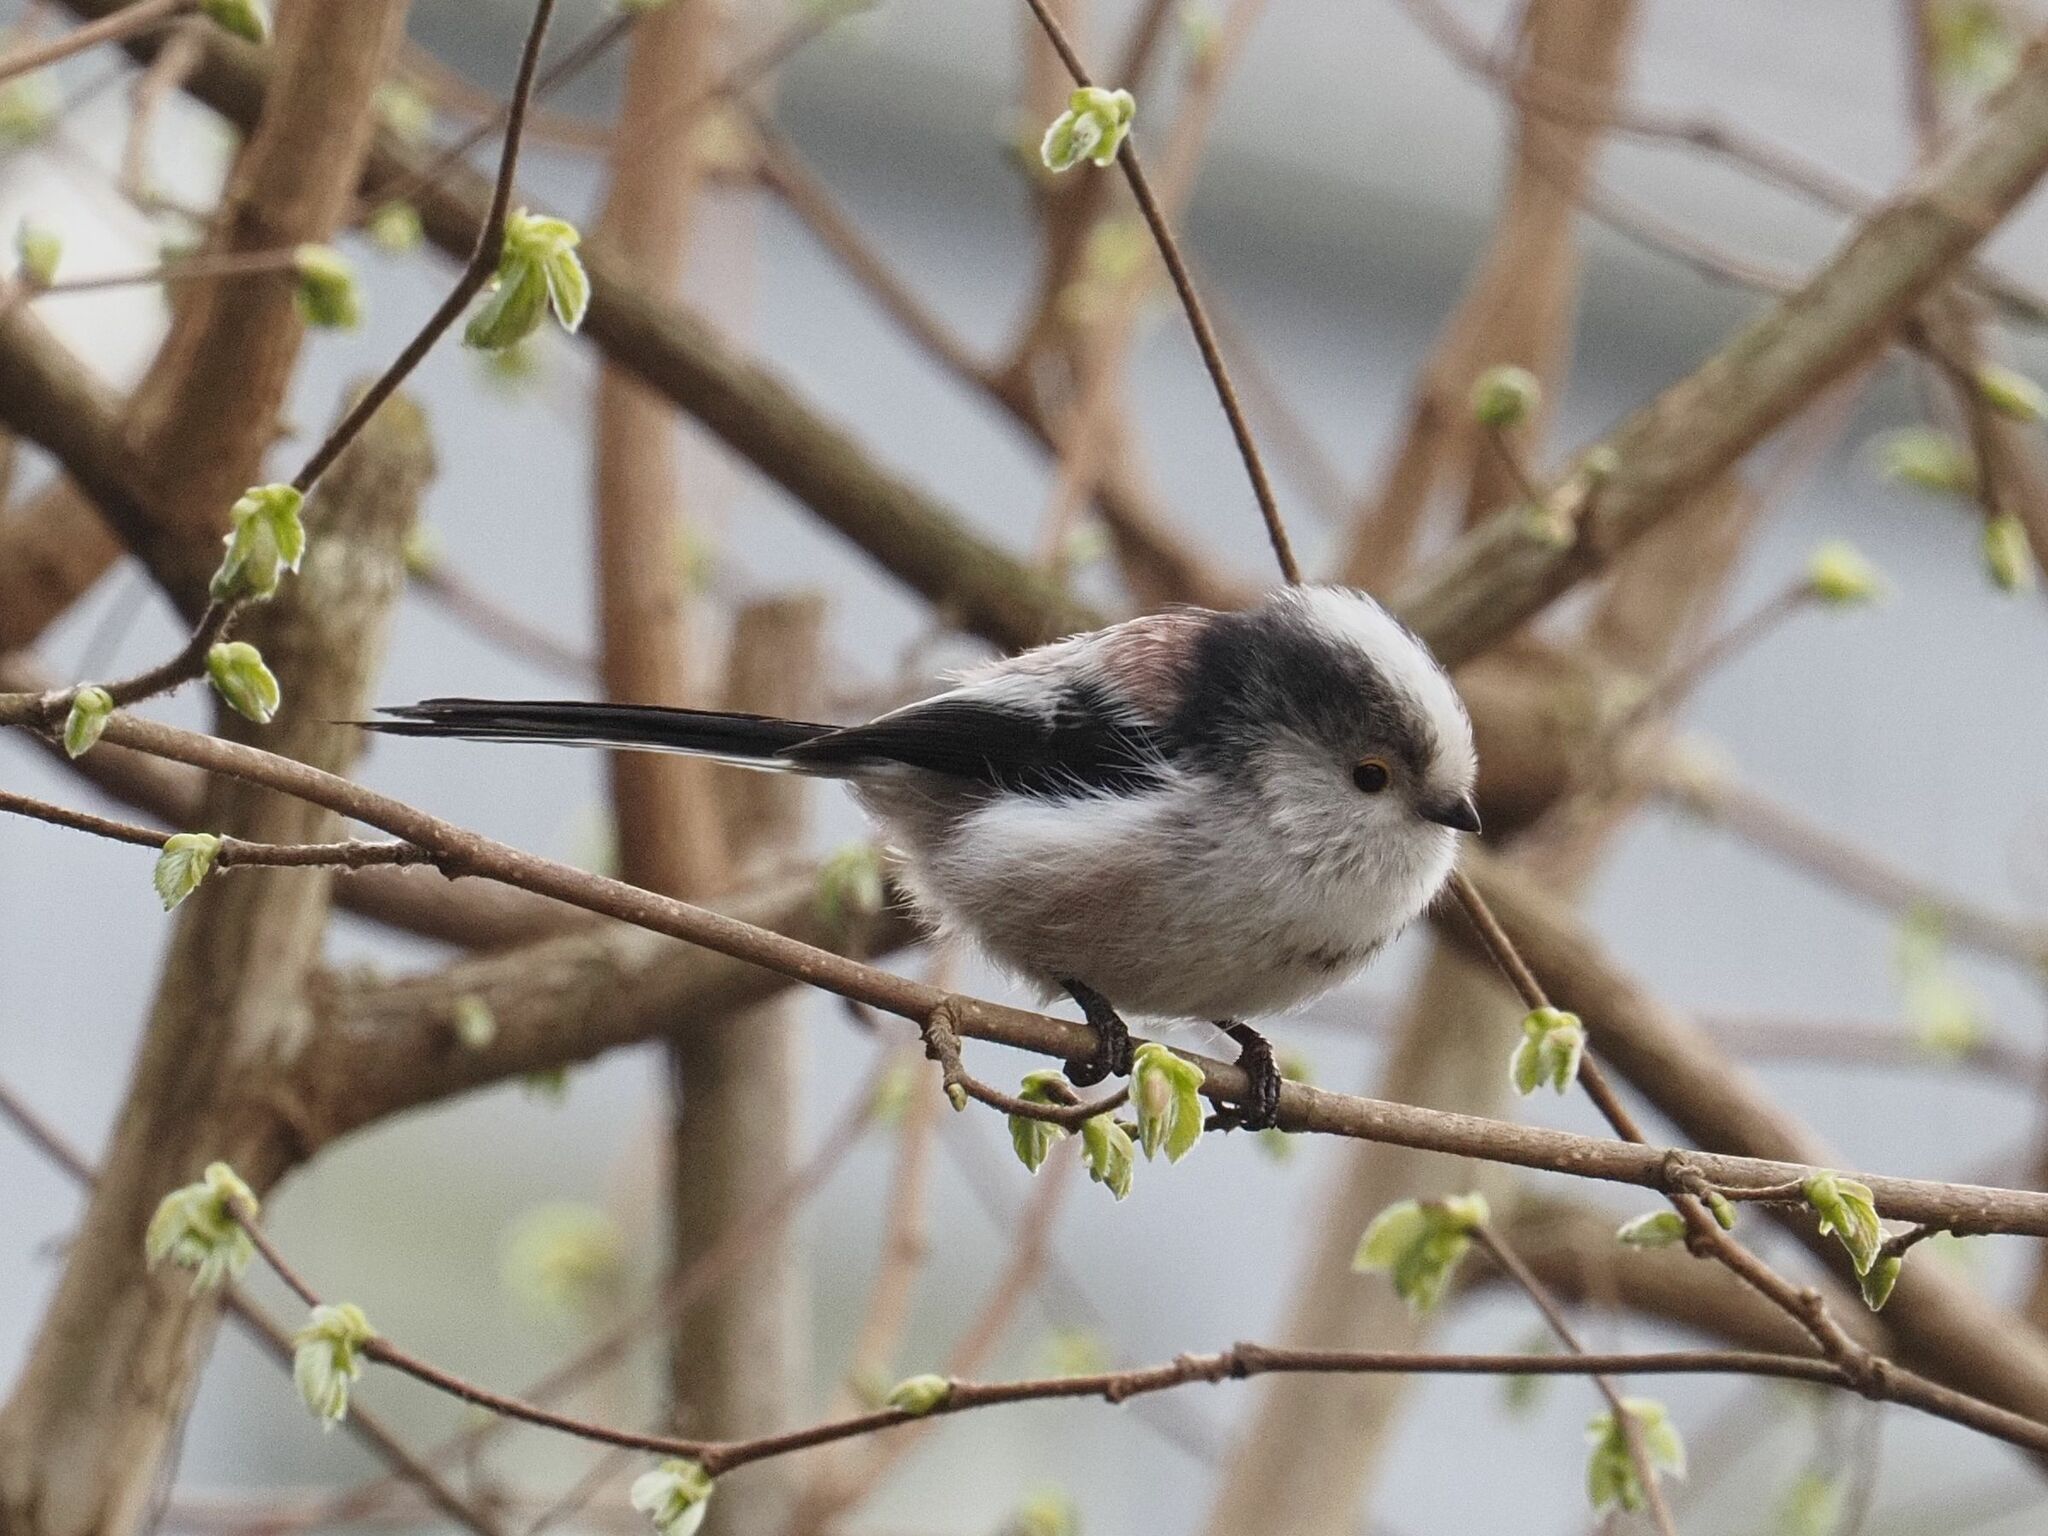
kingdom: Animalia
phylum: Chordata
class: Aves
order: Passeriformes
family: Aegithalidae
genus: Aegithalos
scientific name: Aegithalos caudatus
